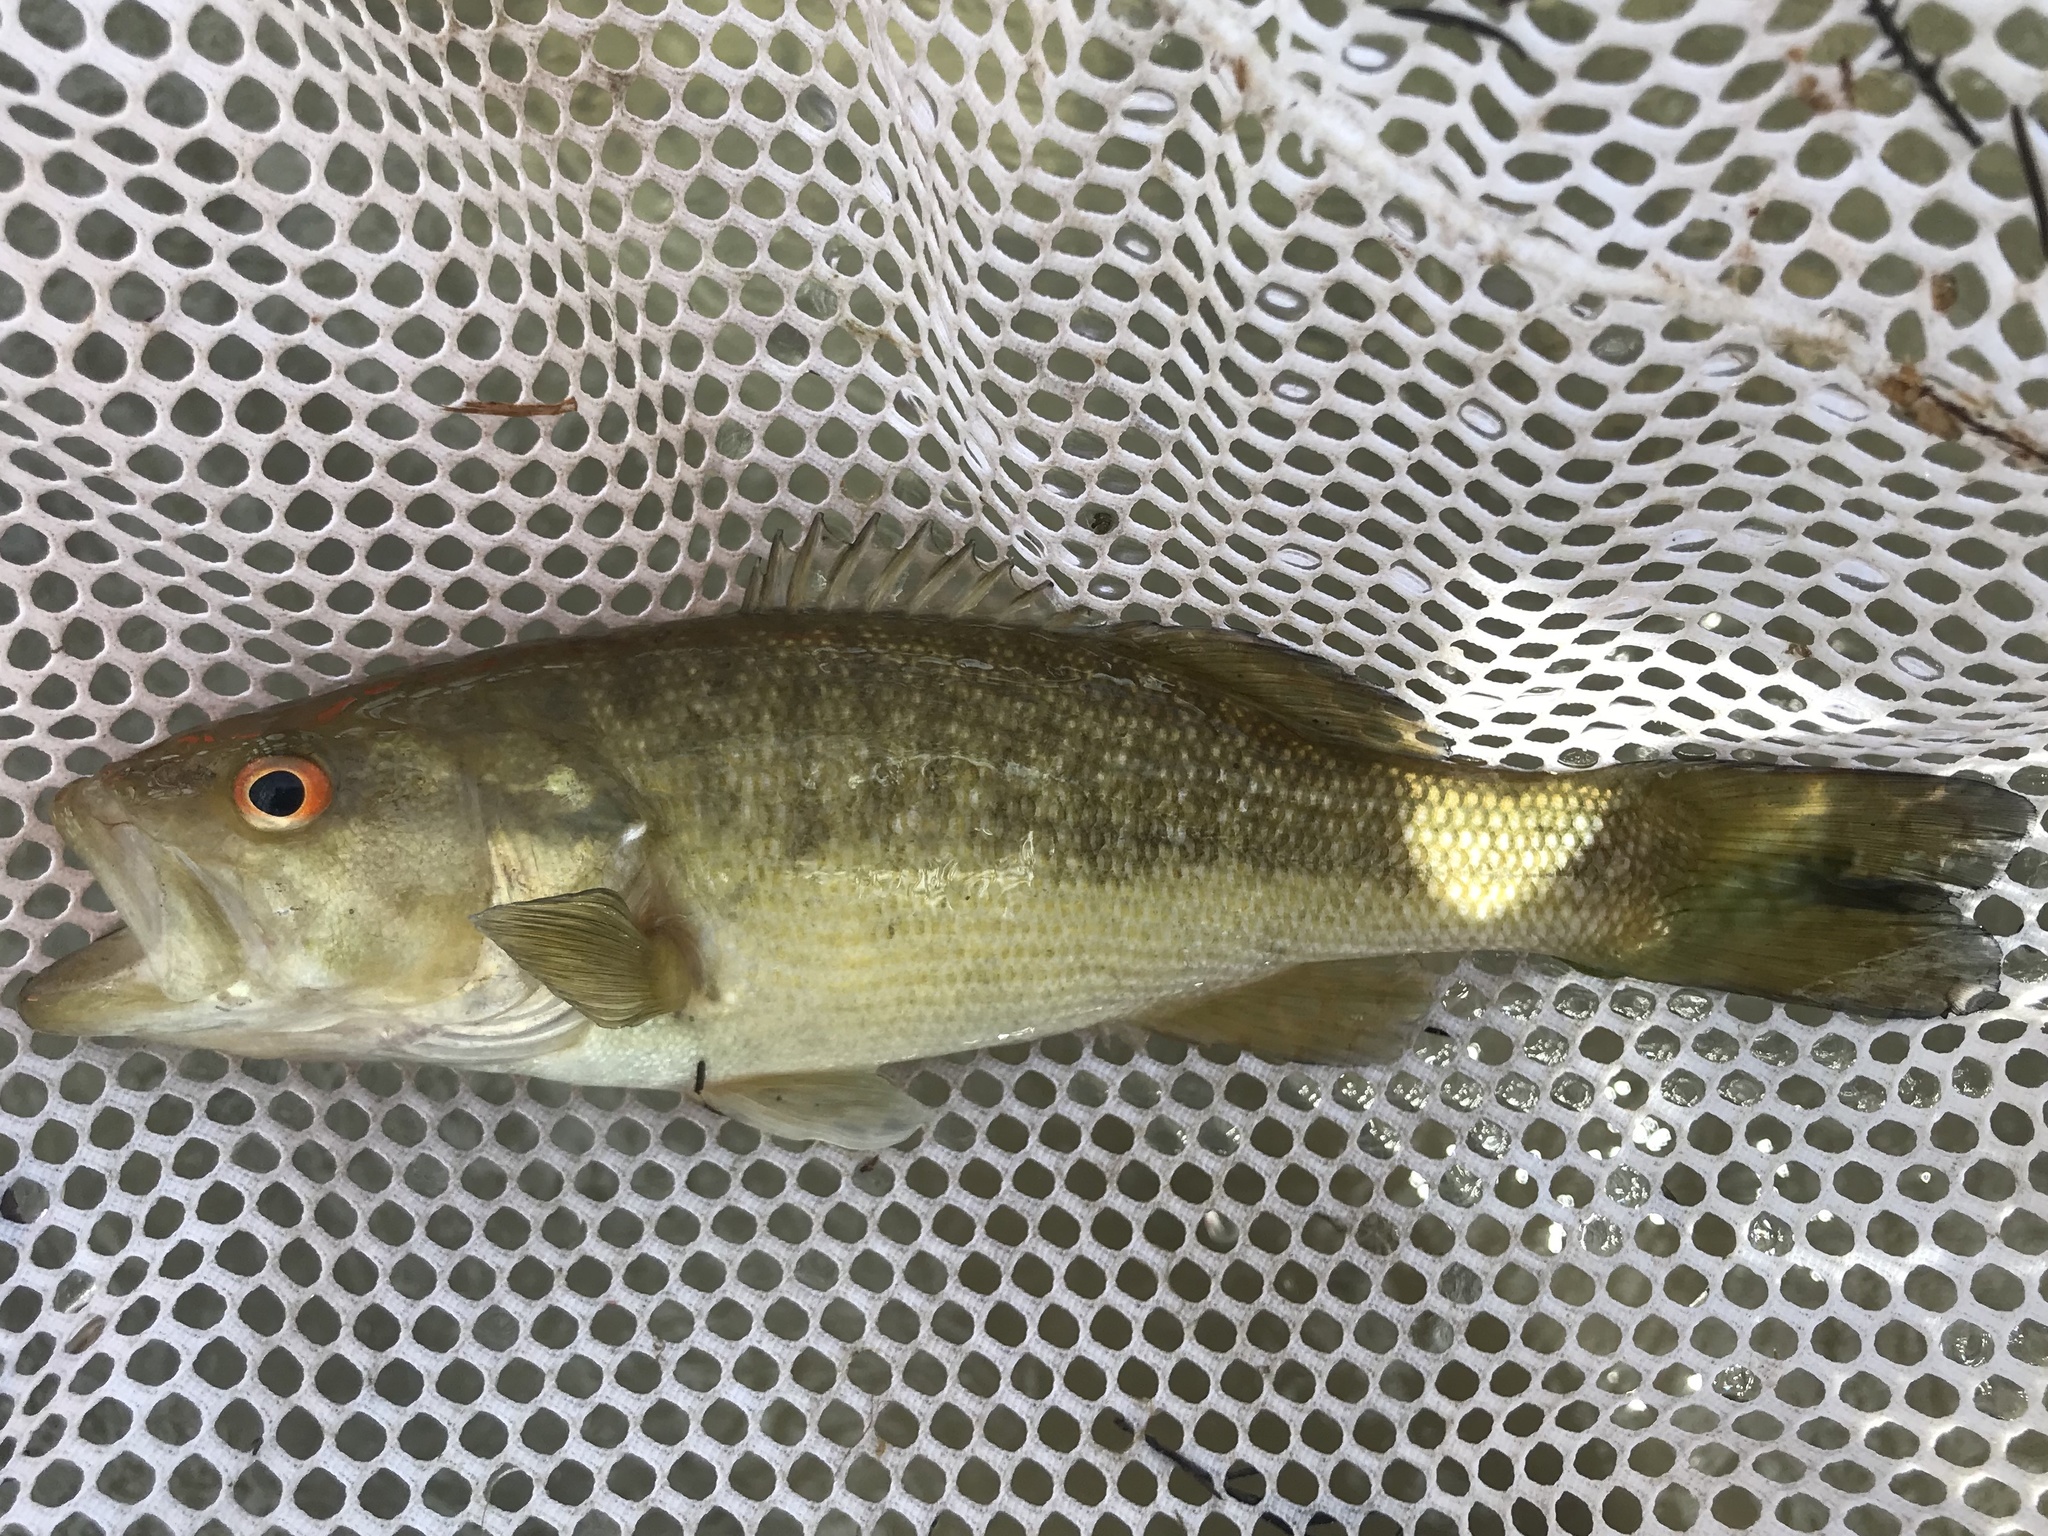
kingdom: Animalia
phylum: Chordata
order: Perciformes
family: Centrarchidae
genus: Micropterus
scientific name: Micropterus treculii
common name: Guadalupe bass
